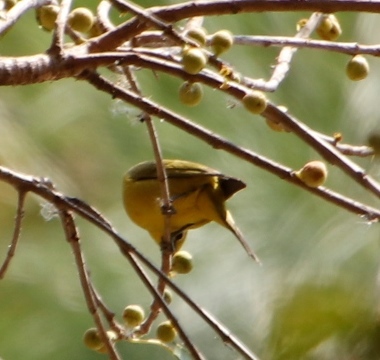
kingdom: Animalia
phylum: Chordata
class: Aves
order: Passeriformes
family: Zosteropidae
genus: Zosterops
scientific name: Zosterops anderssoni
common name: Southern yellow white-eye
